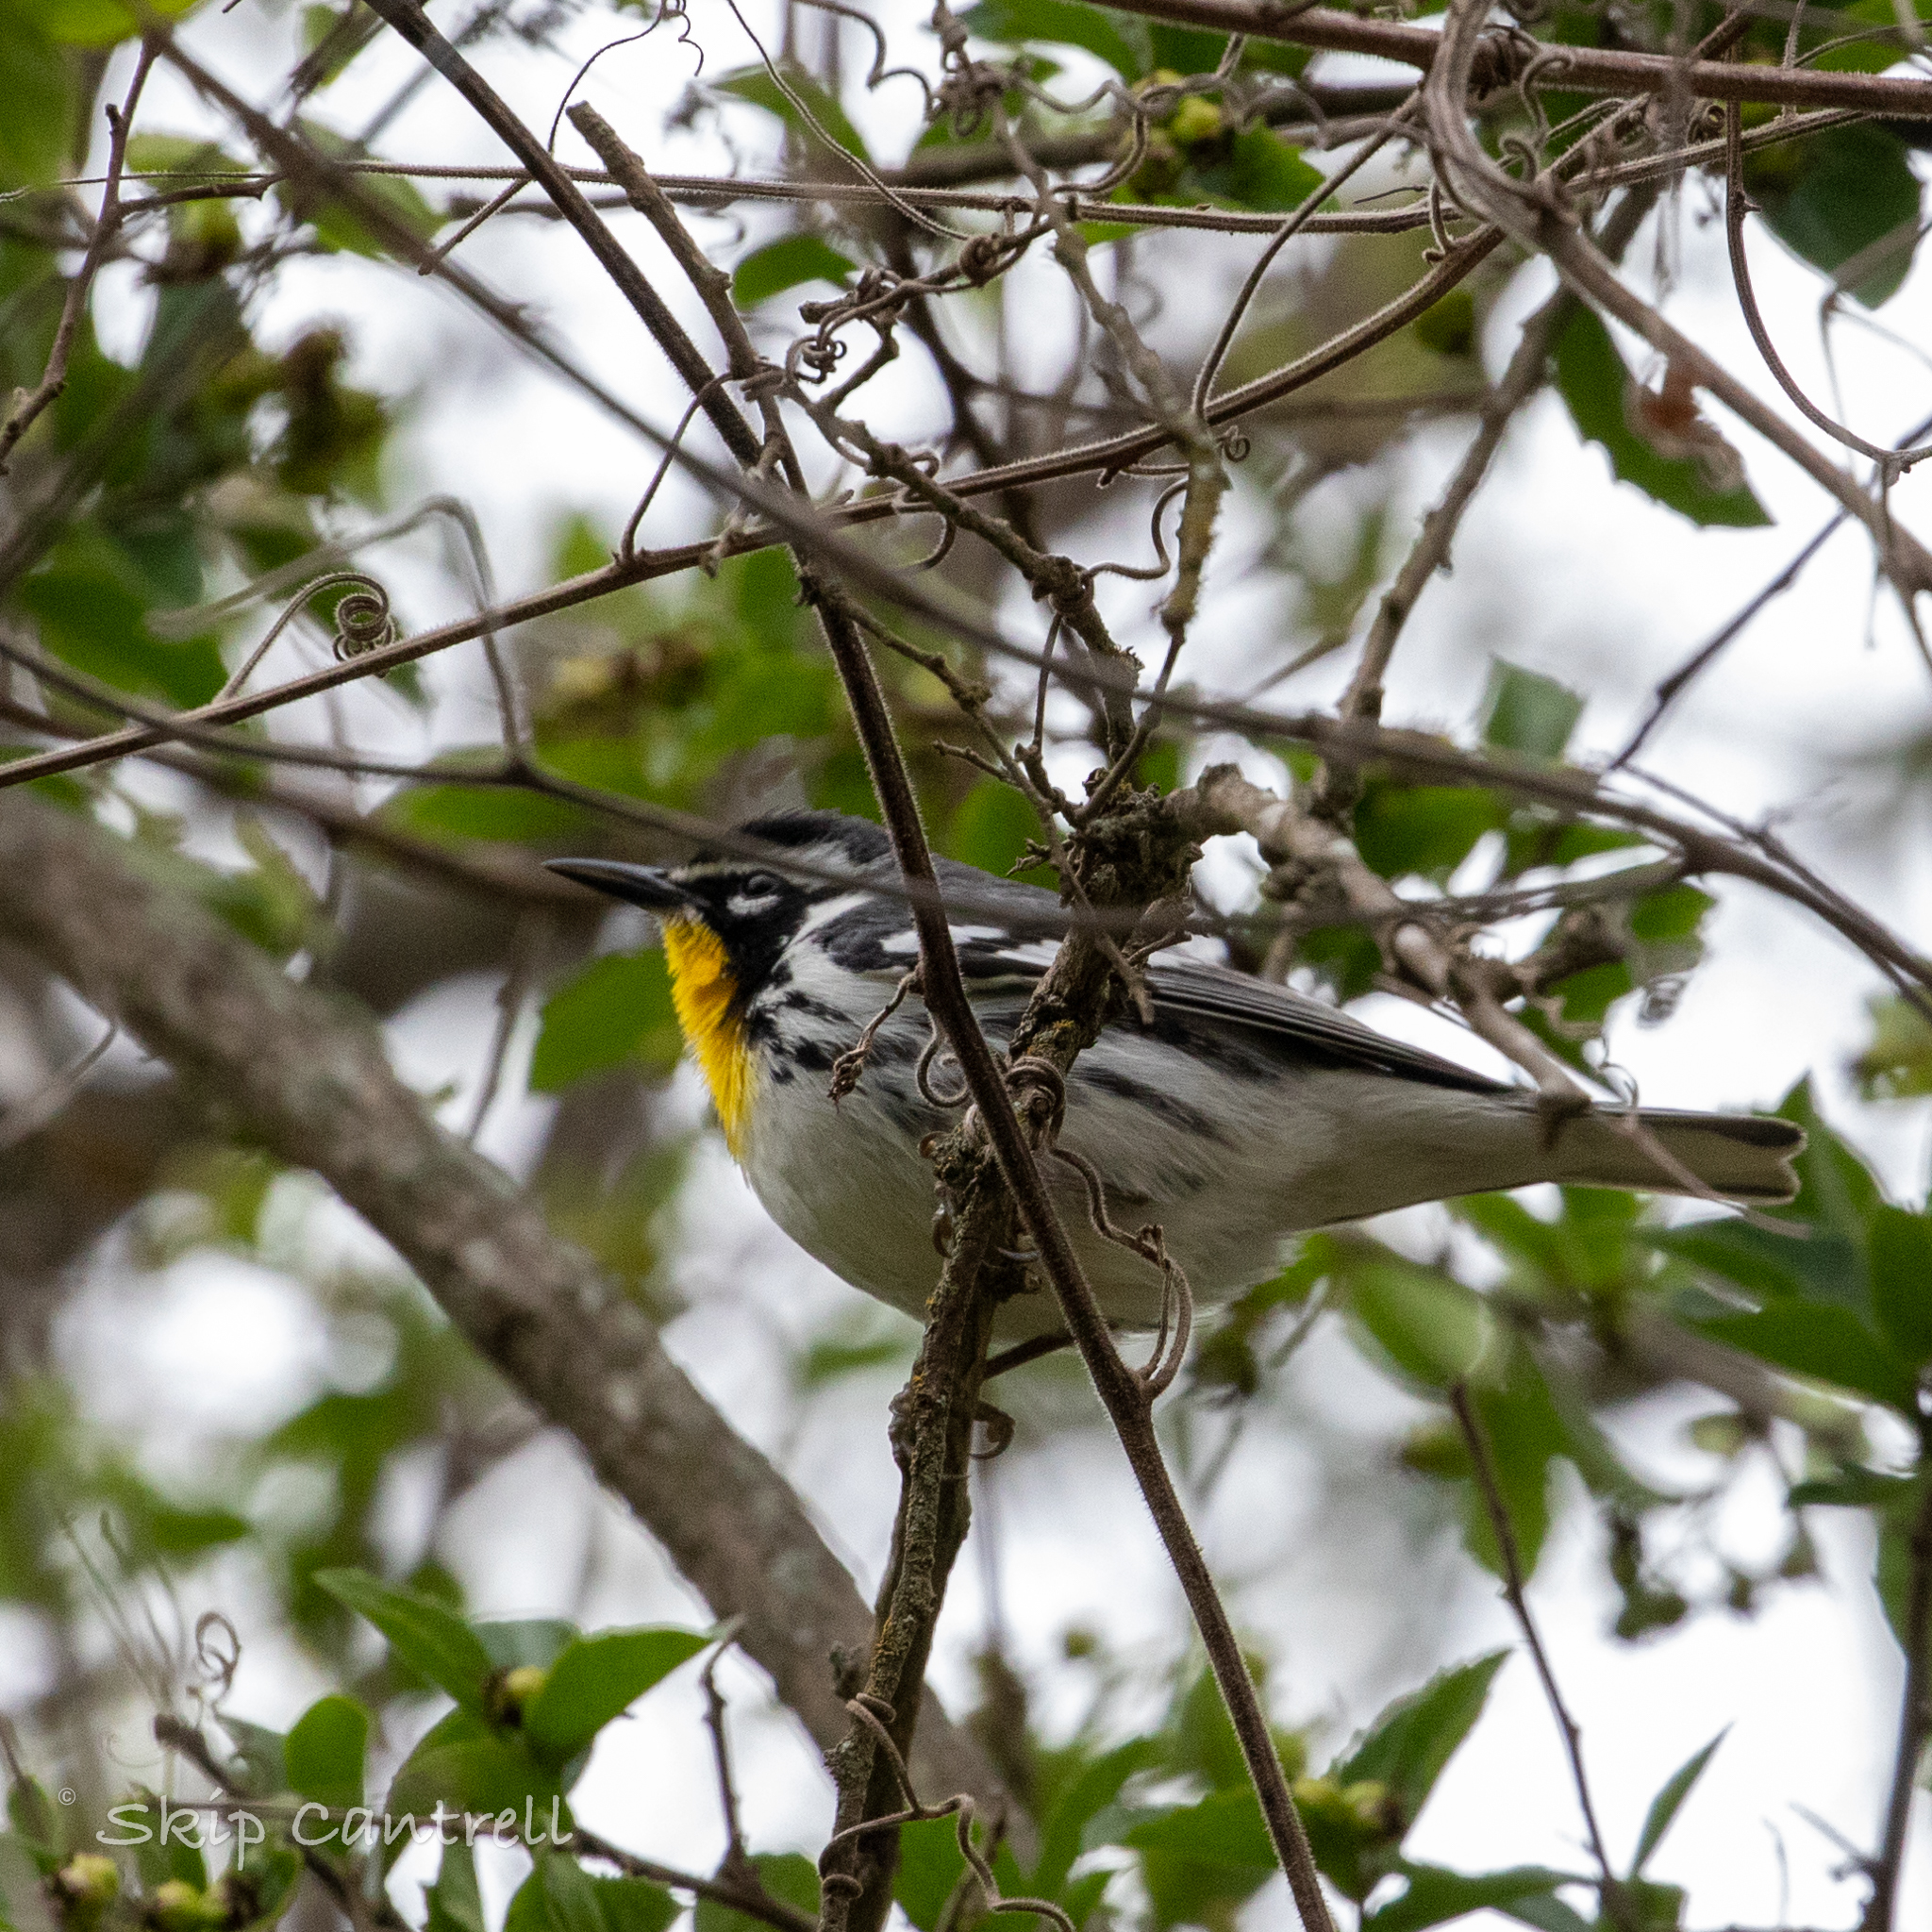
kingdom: Animalia
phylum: Chordata
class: Aves
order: Passeriformes
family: Parulidae
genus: Setophaga
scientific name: Setophaga dominica
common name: Yellow-throated warbler
